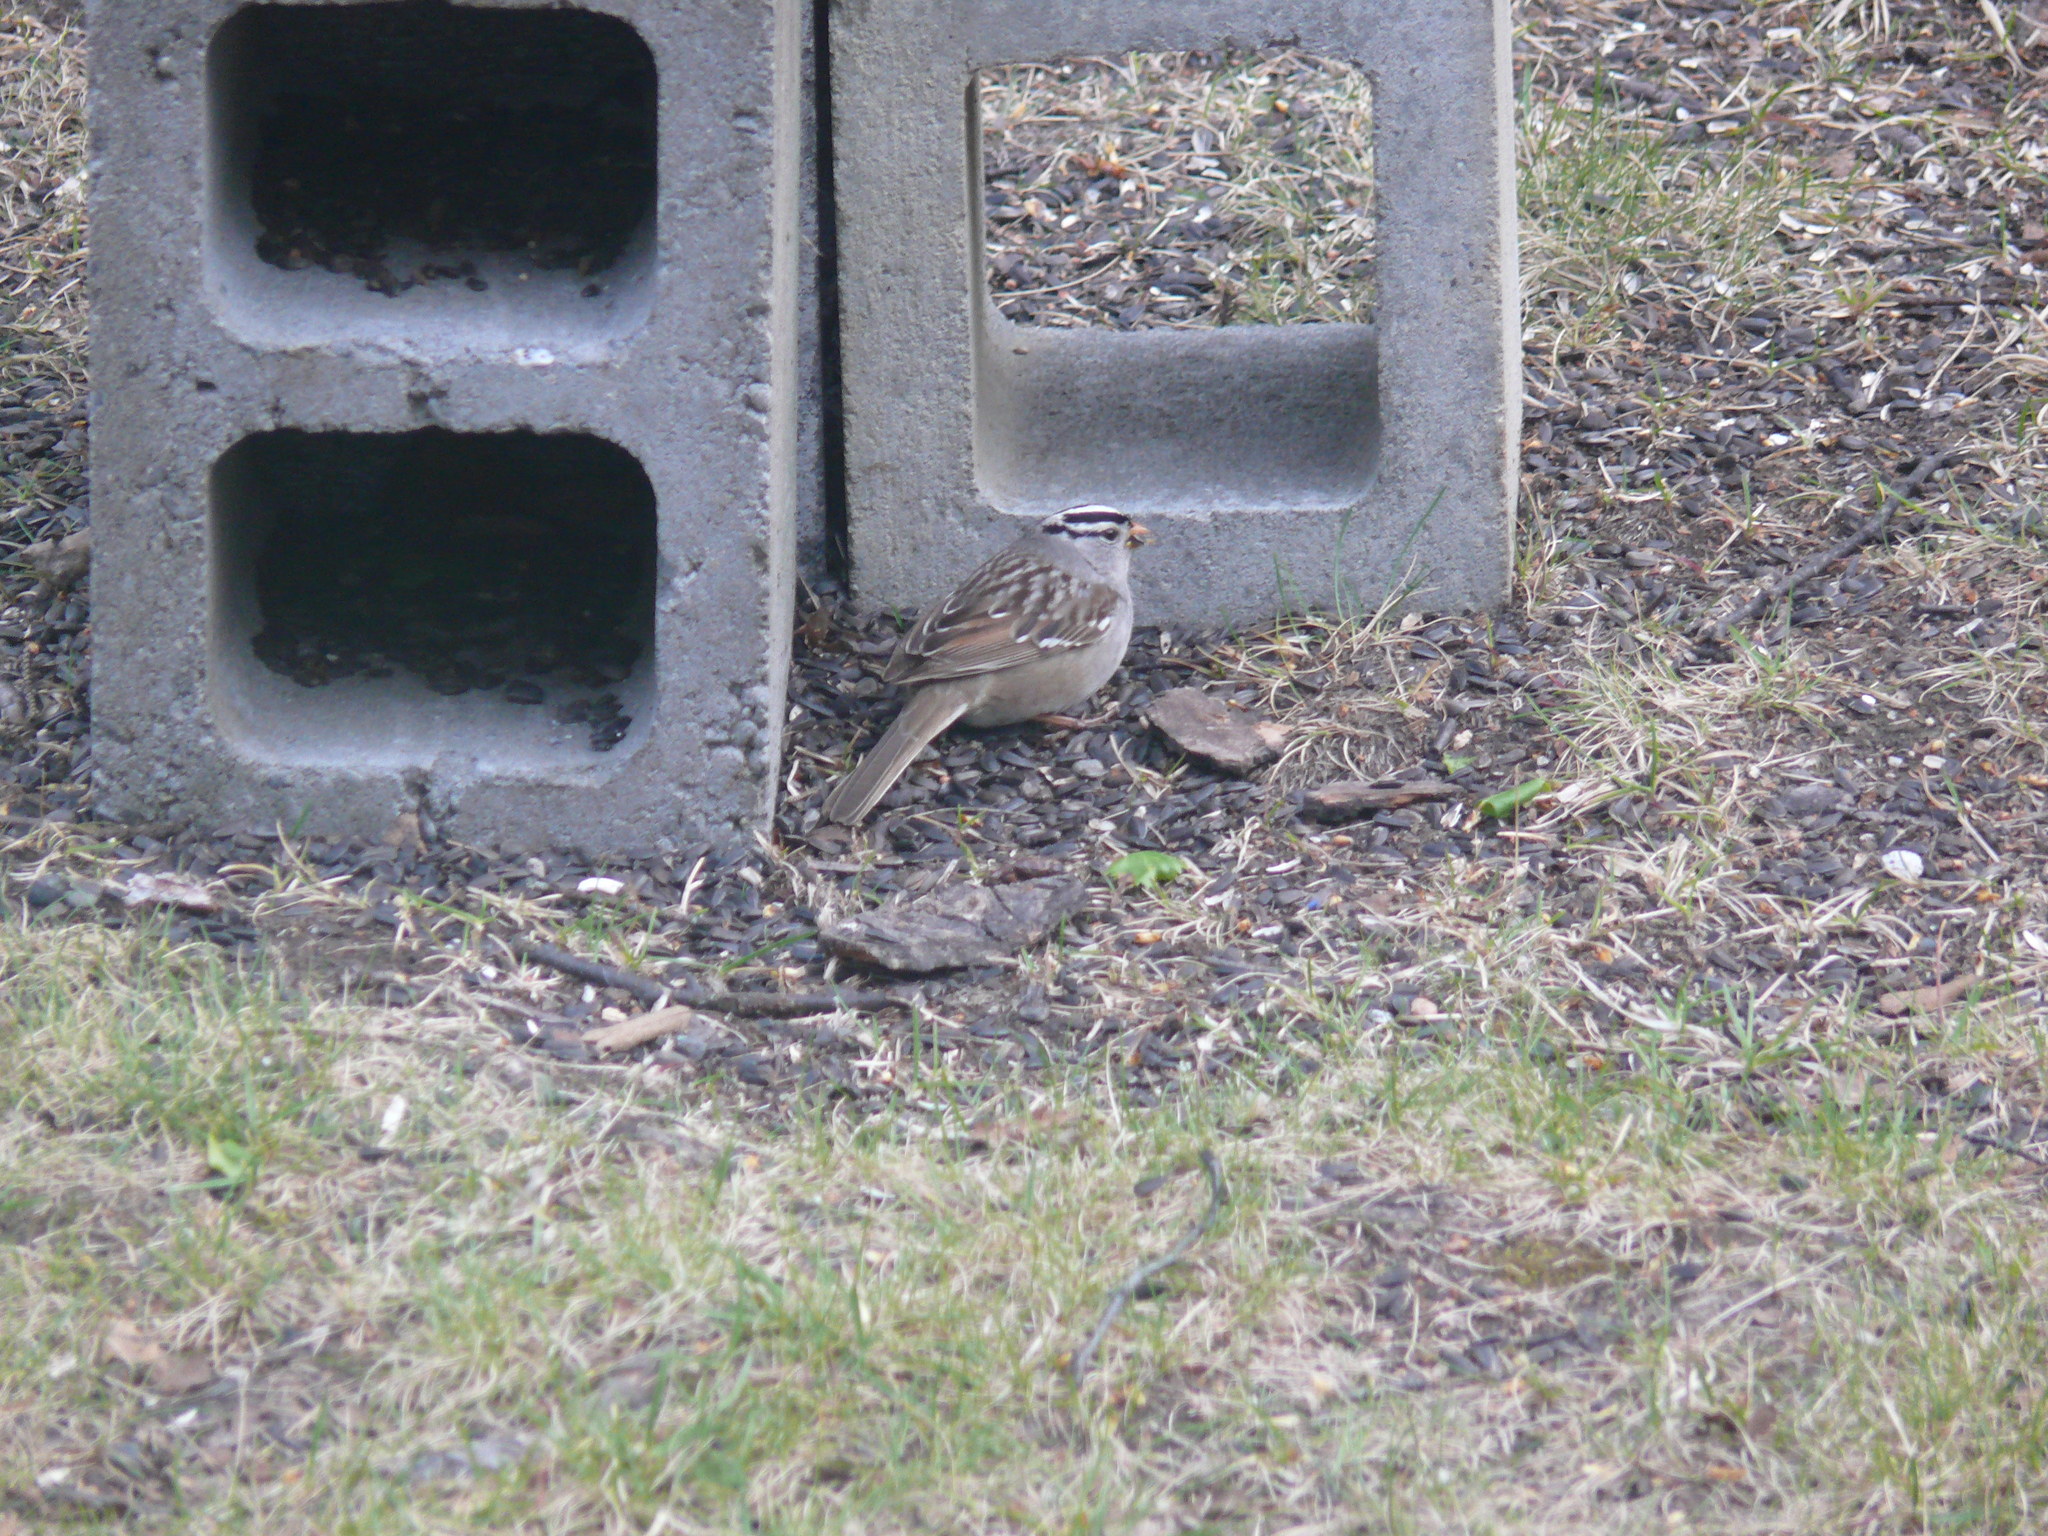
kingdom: Animalia
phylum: Chordata
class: Aves
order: Passeriformes
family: Passerellidae
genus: Zonotrichia
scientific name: Zonotrichia leucophrys
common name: White-crowned sparrow
